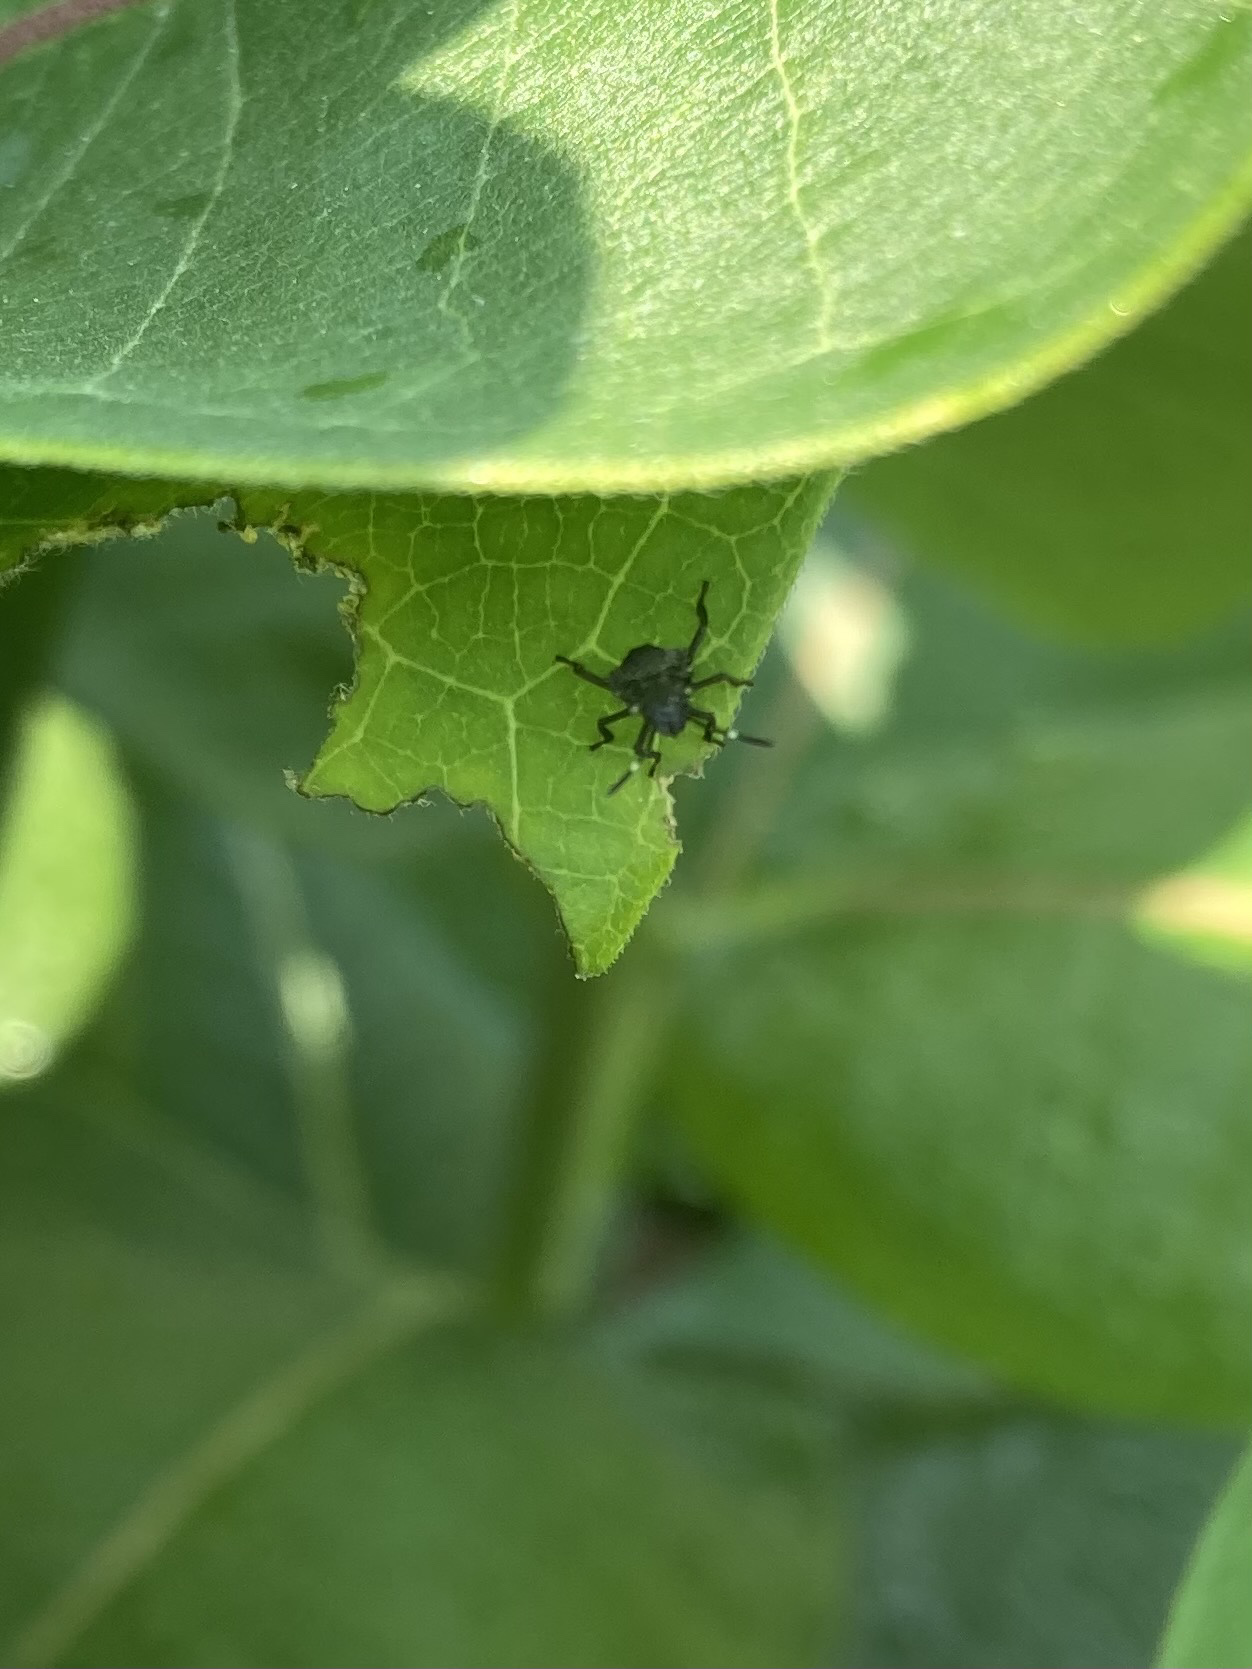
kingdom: Animalia
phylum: Arthropoda
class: Insecta
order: Hemiptera
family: Pentatomidae
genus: Halyomorpha
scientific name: Halyomorpha halys
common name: Brown marmorated stink bug
